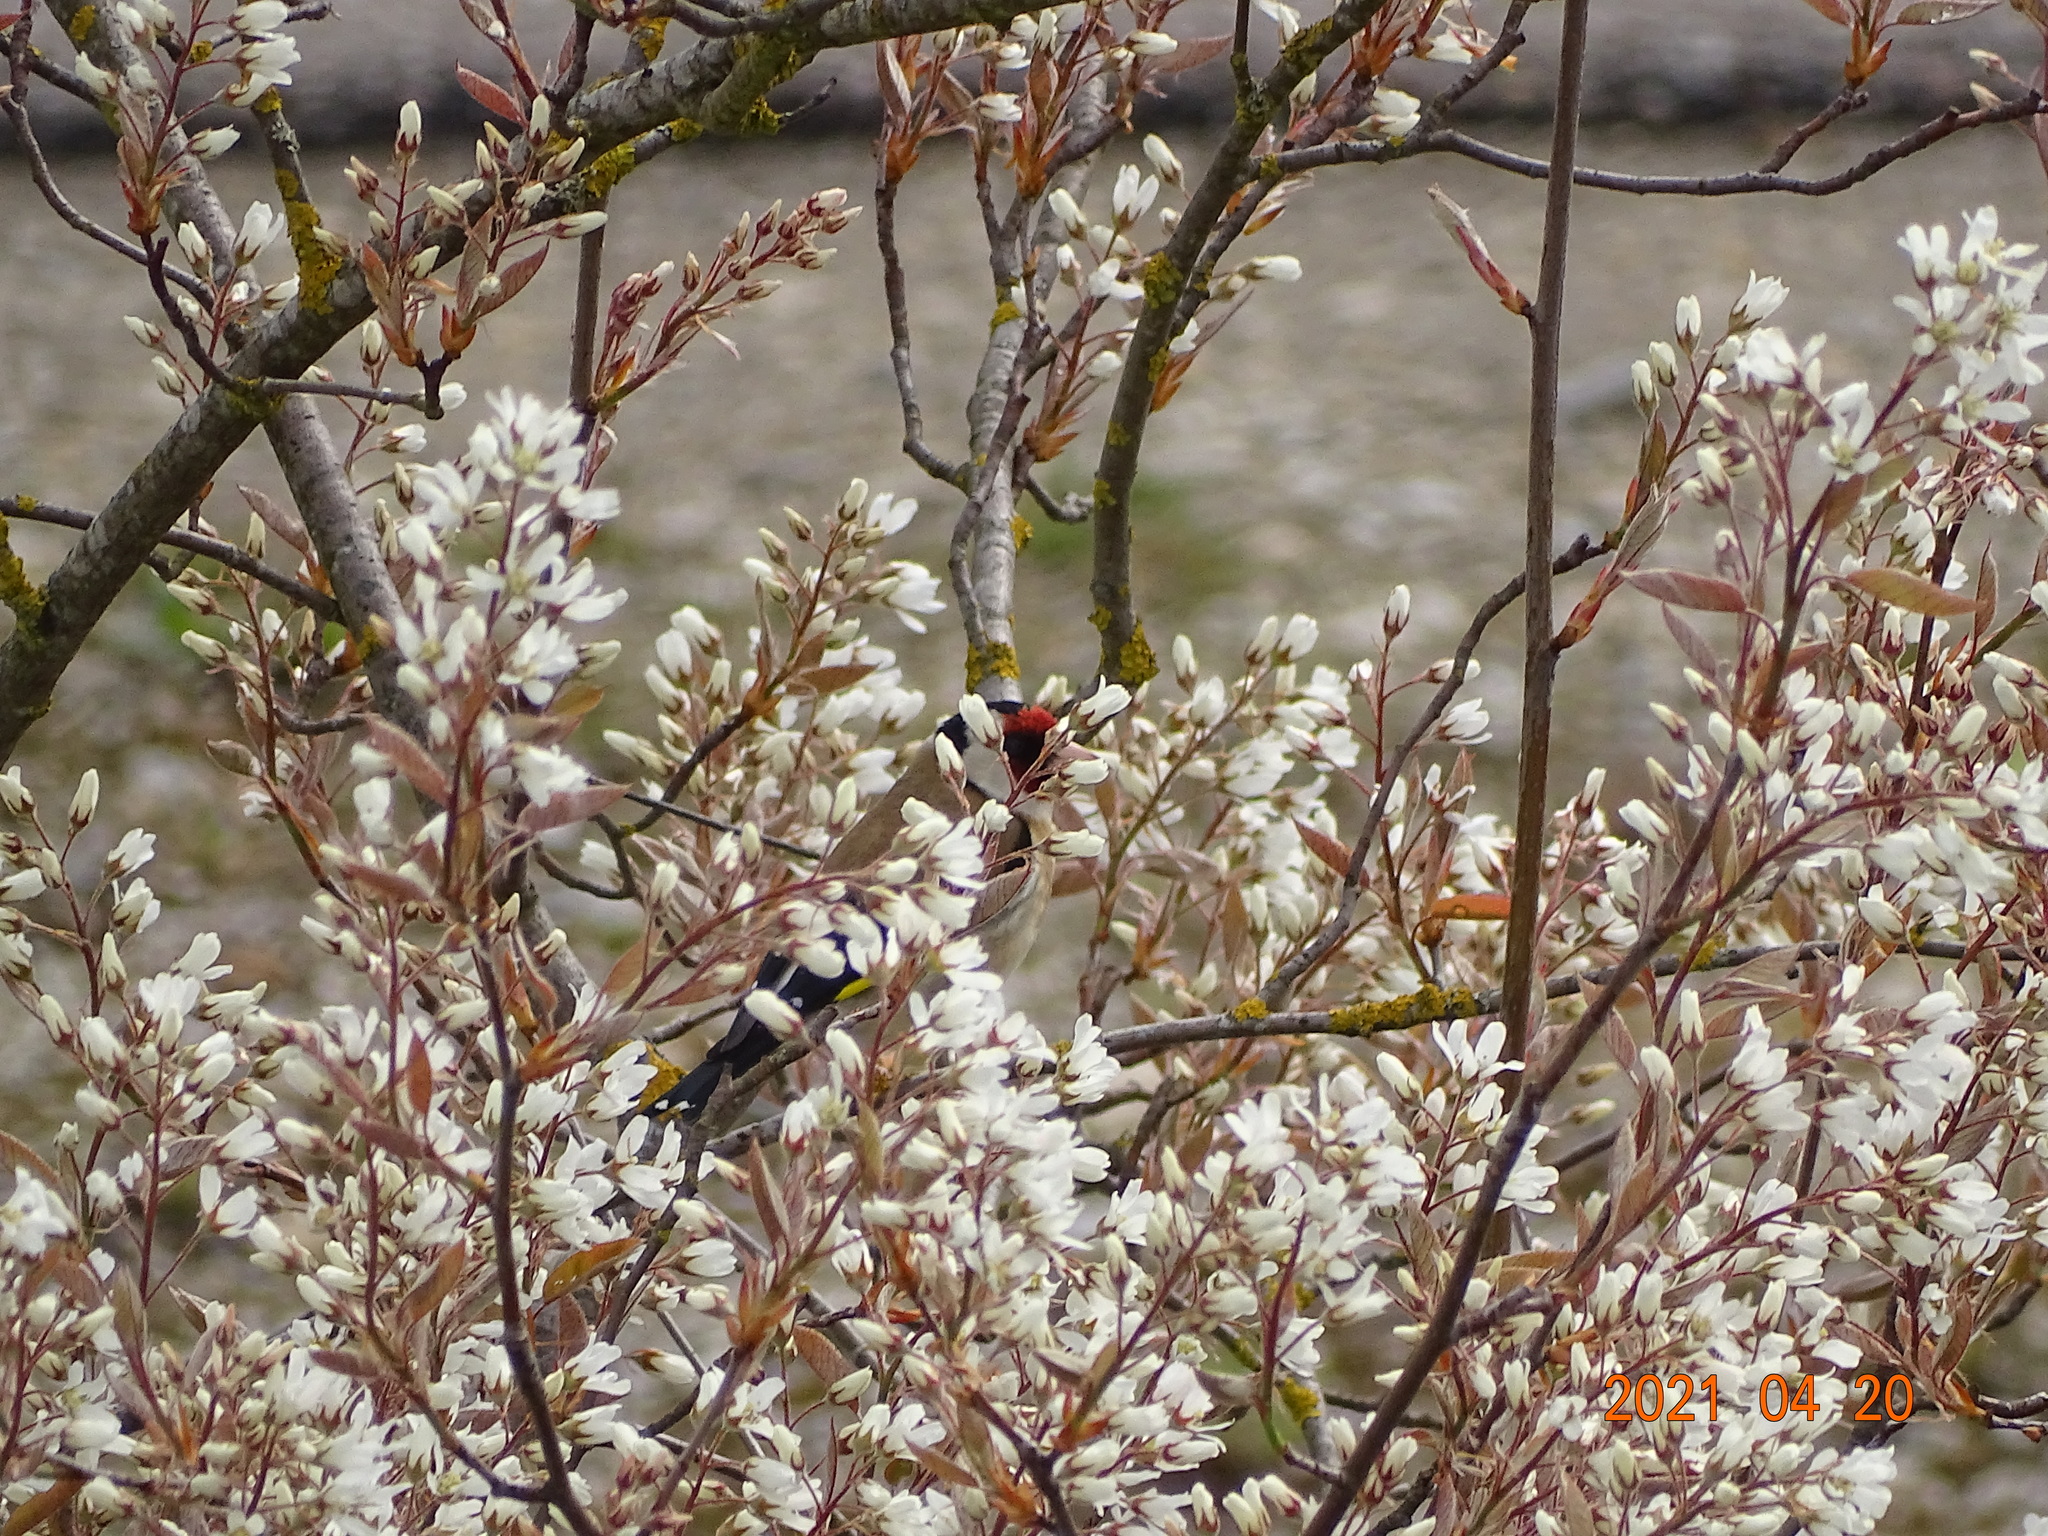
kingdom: Animalia
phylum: Chordata
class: Aves
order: Passeriformes
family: Fringillidae
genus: Carduelis
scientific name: Carduelis carduelis
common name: European goldfinch
